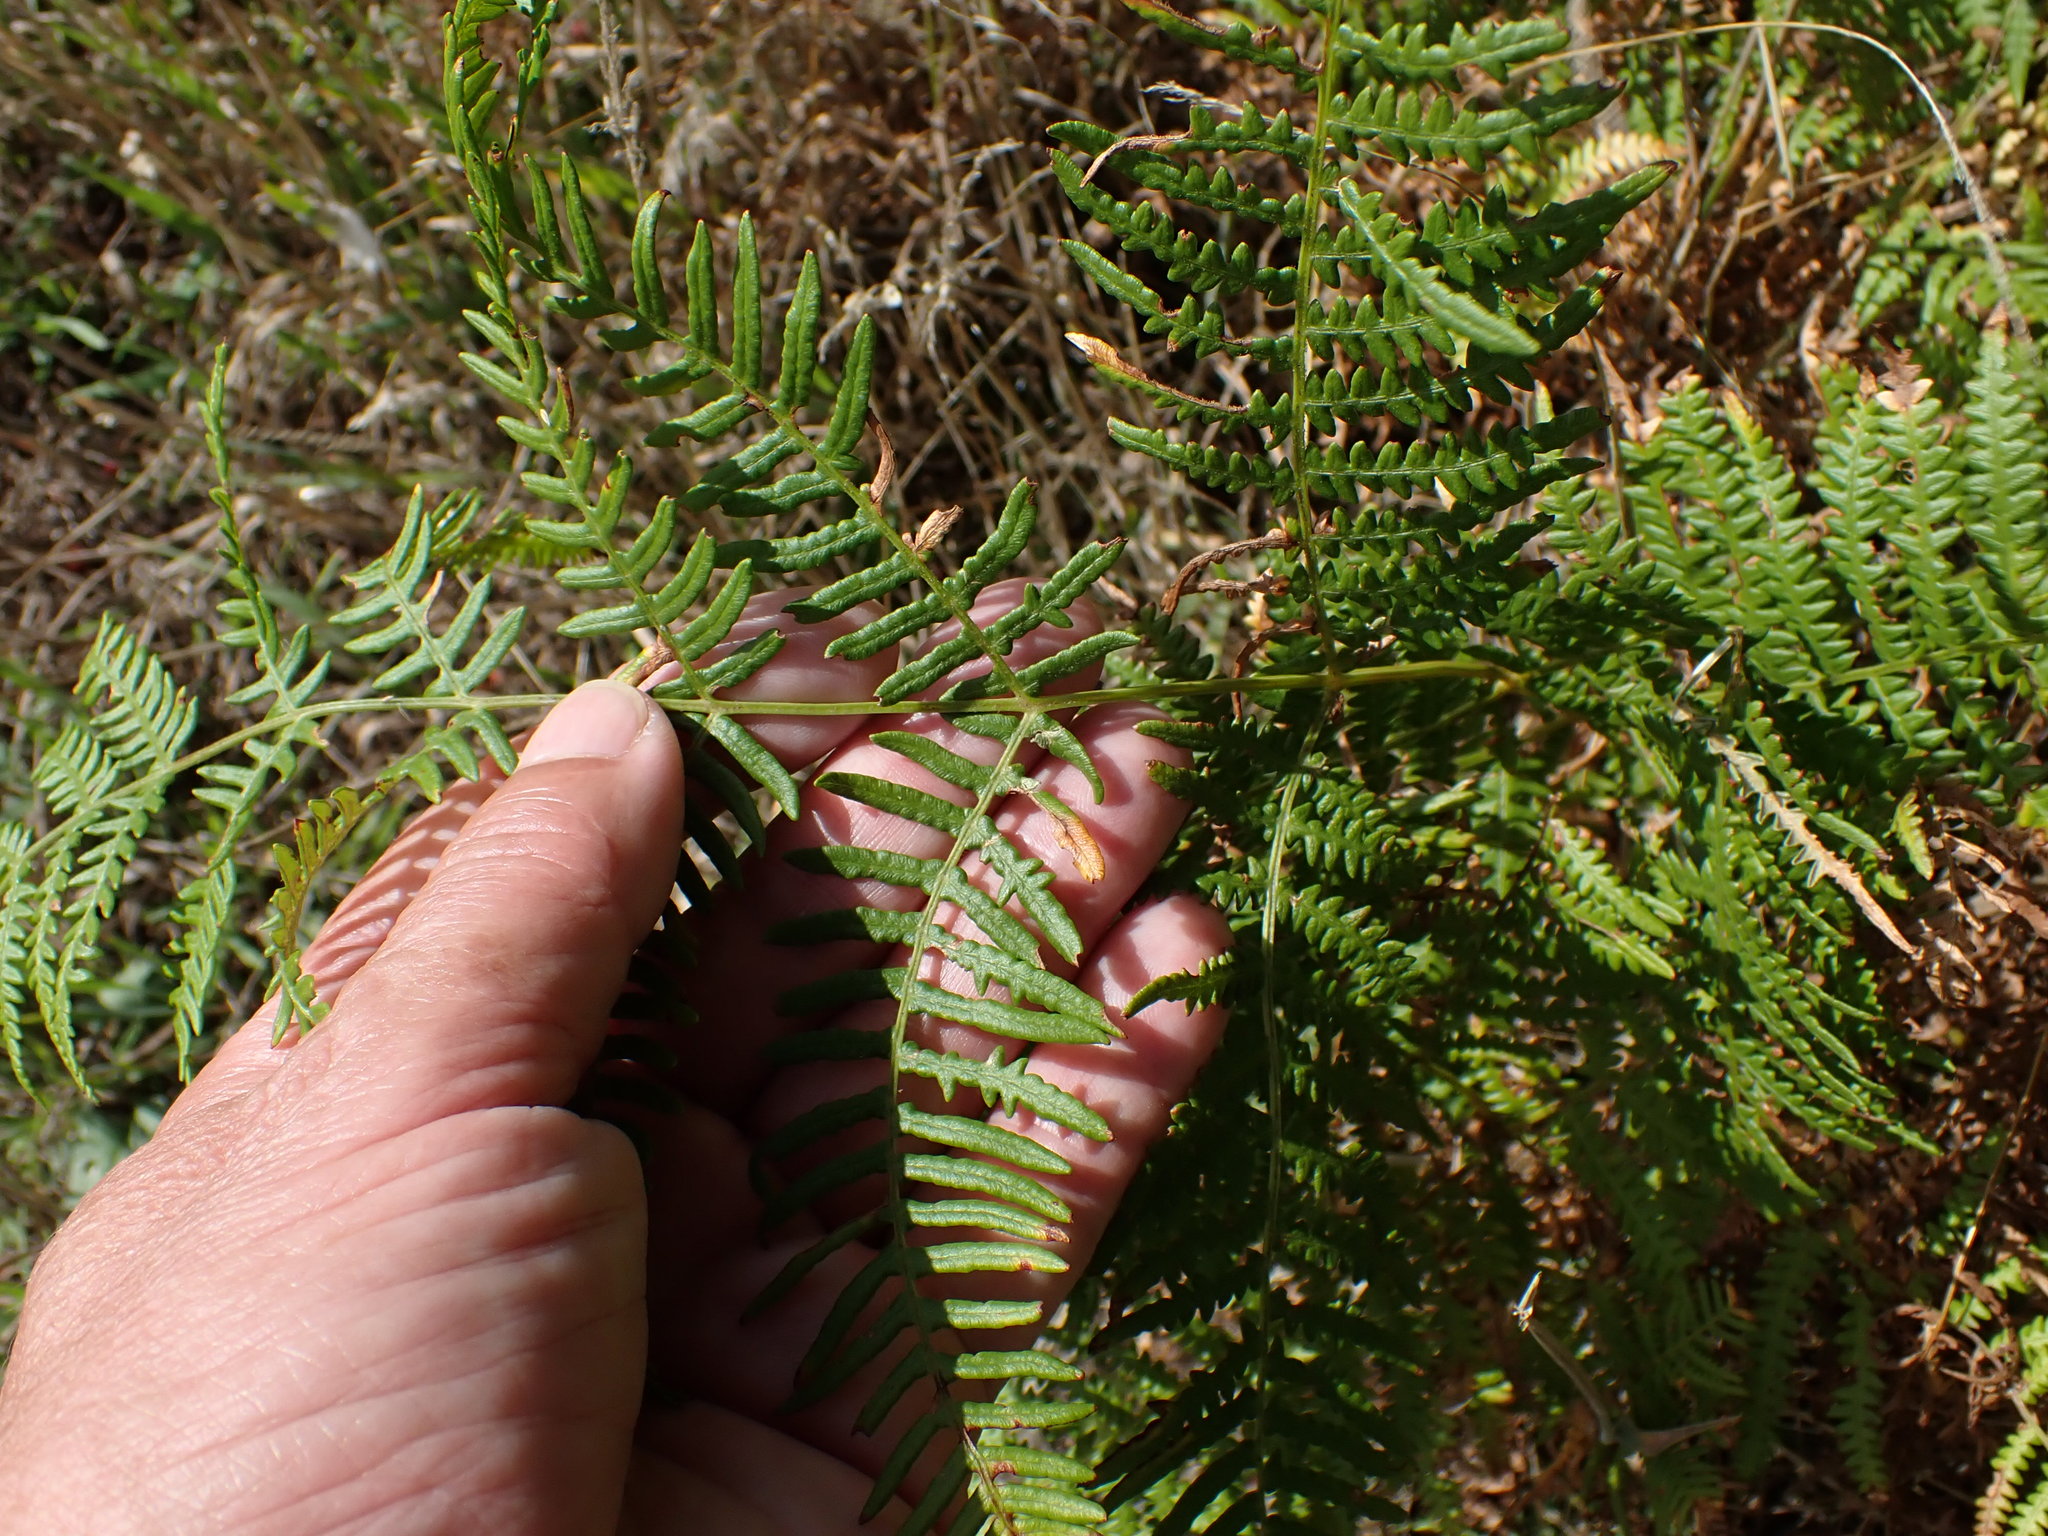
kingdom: Plantae
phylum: Tracheophyta
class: Polypodiopsida
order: Polypodiales
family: Dennstaedtiaceae
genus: Pteridium
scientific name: Pteridium aquilinum
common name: Bracken
